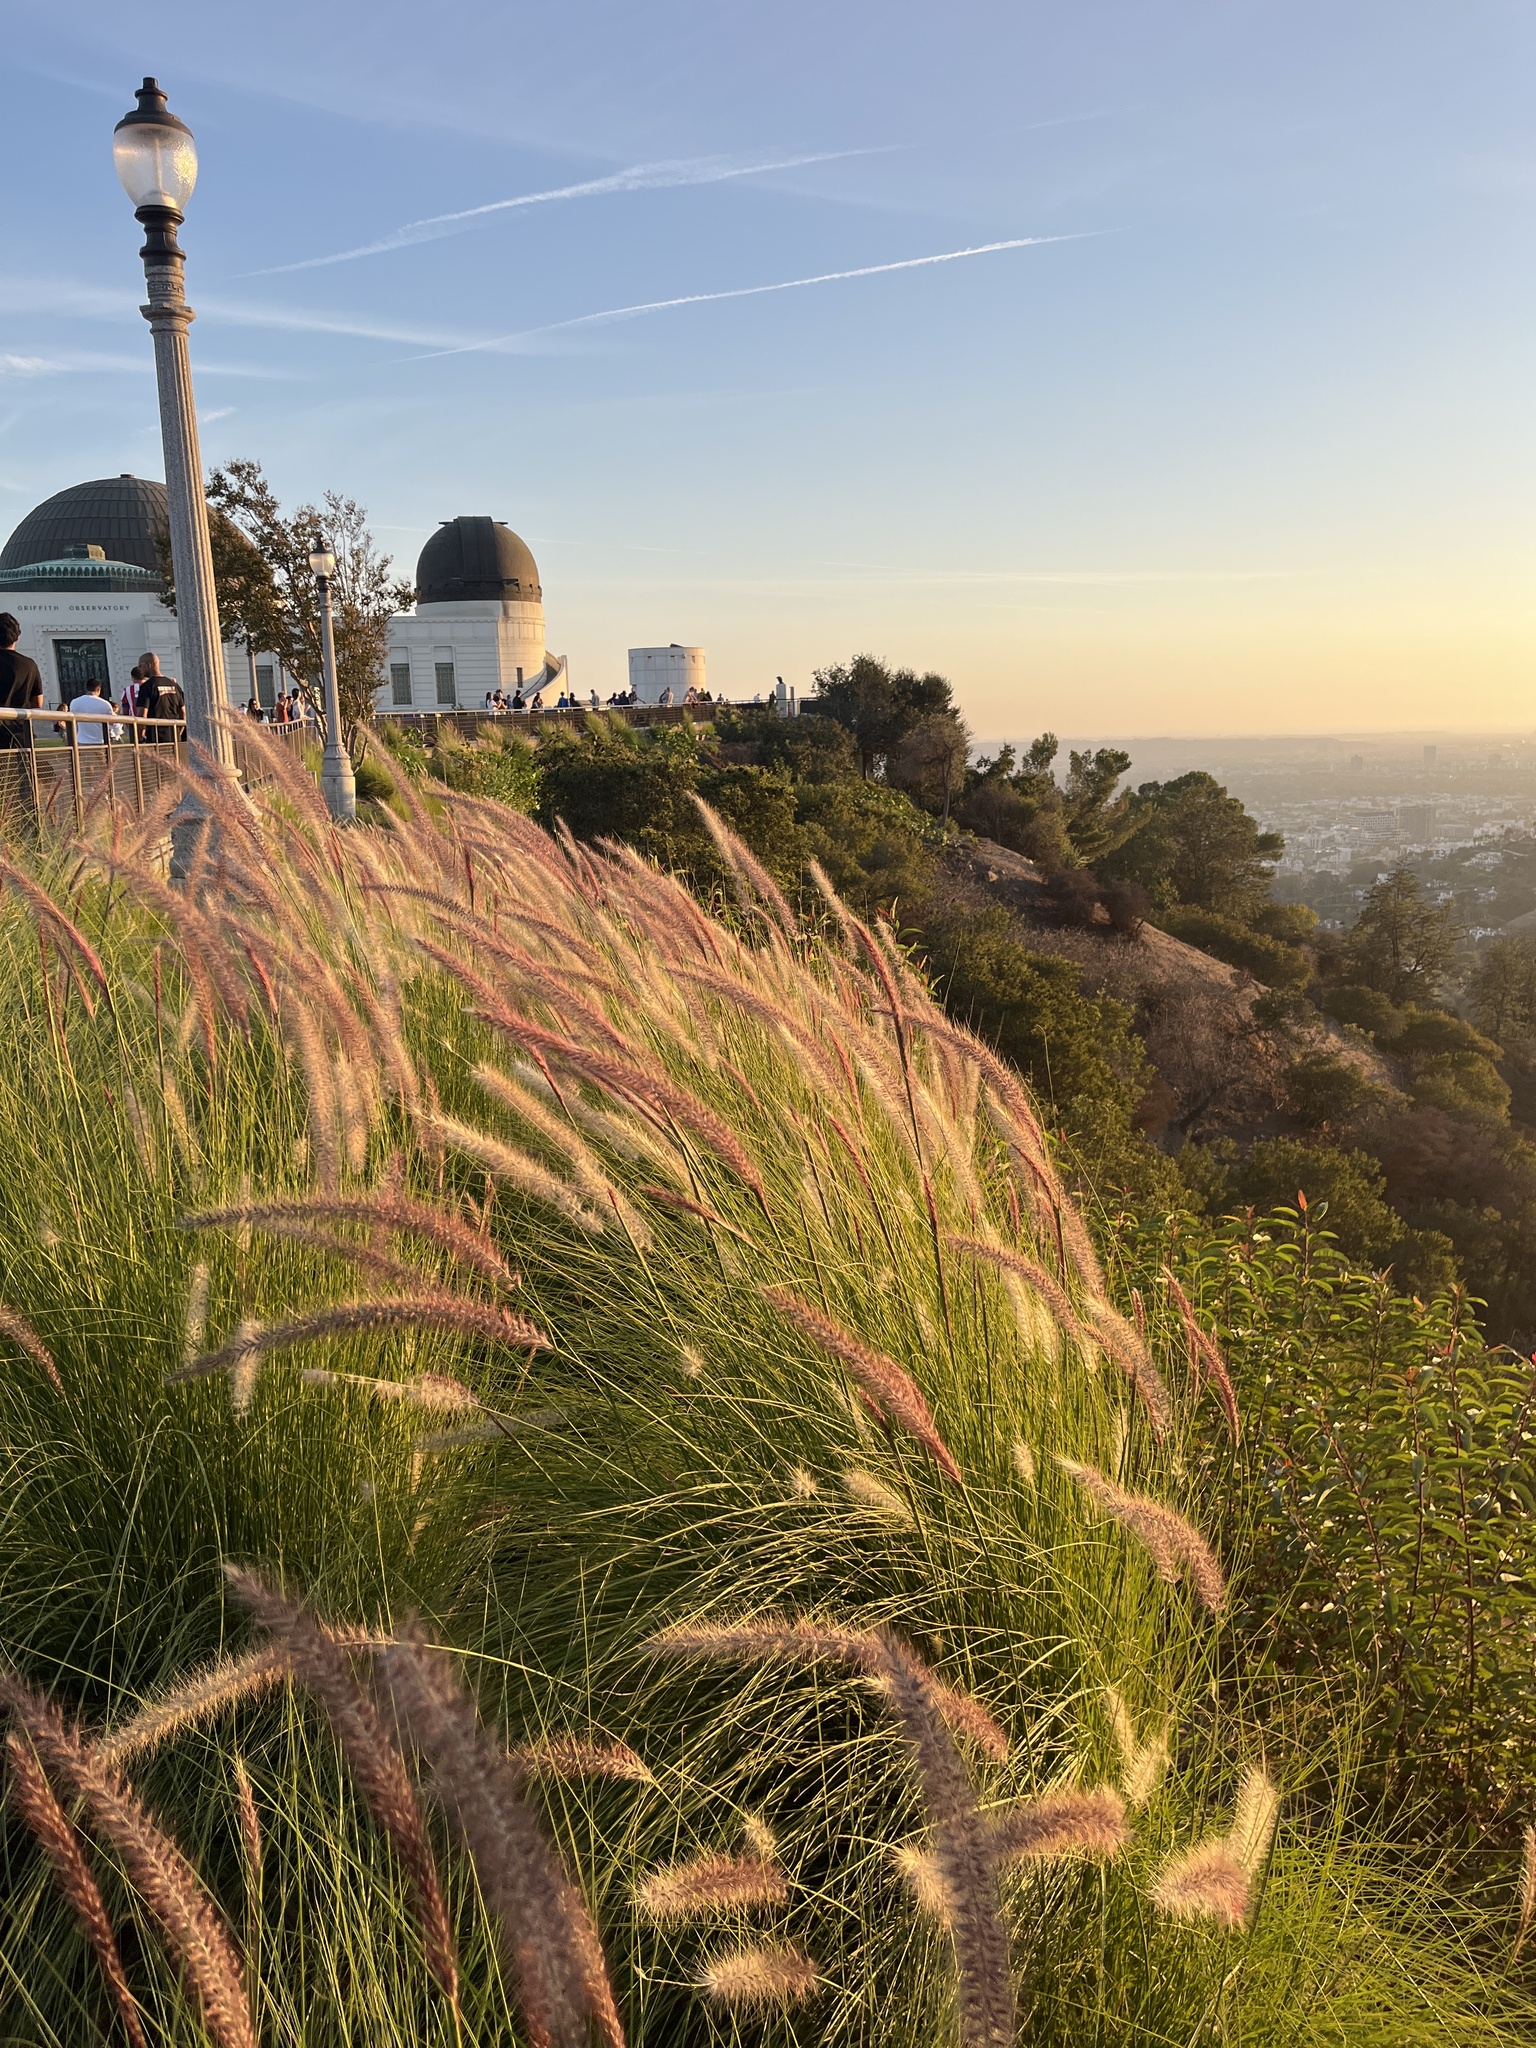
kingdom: Plantae
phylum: Tracheophyta
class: Liliopsida
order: Poales
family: Poaceae
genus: Cenchrus
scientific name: Cenchrus setaceus
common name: Crimson fountaingrass
